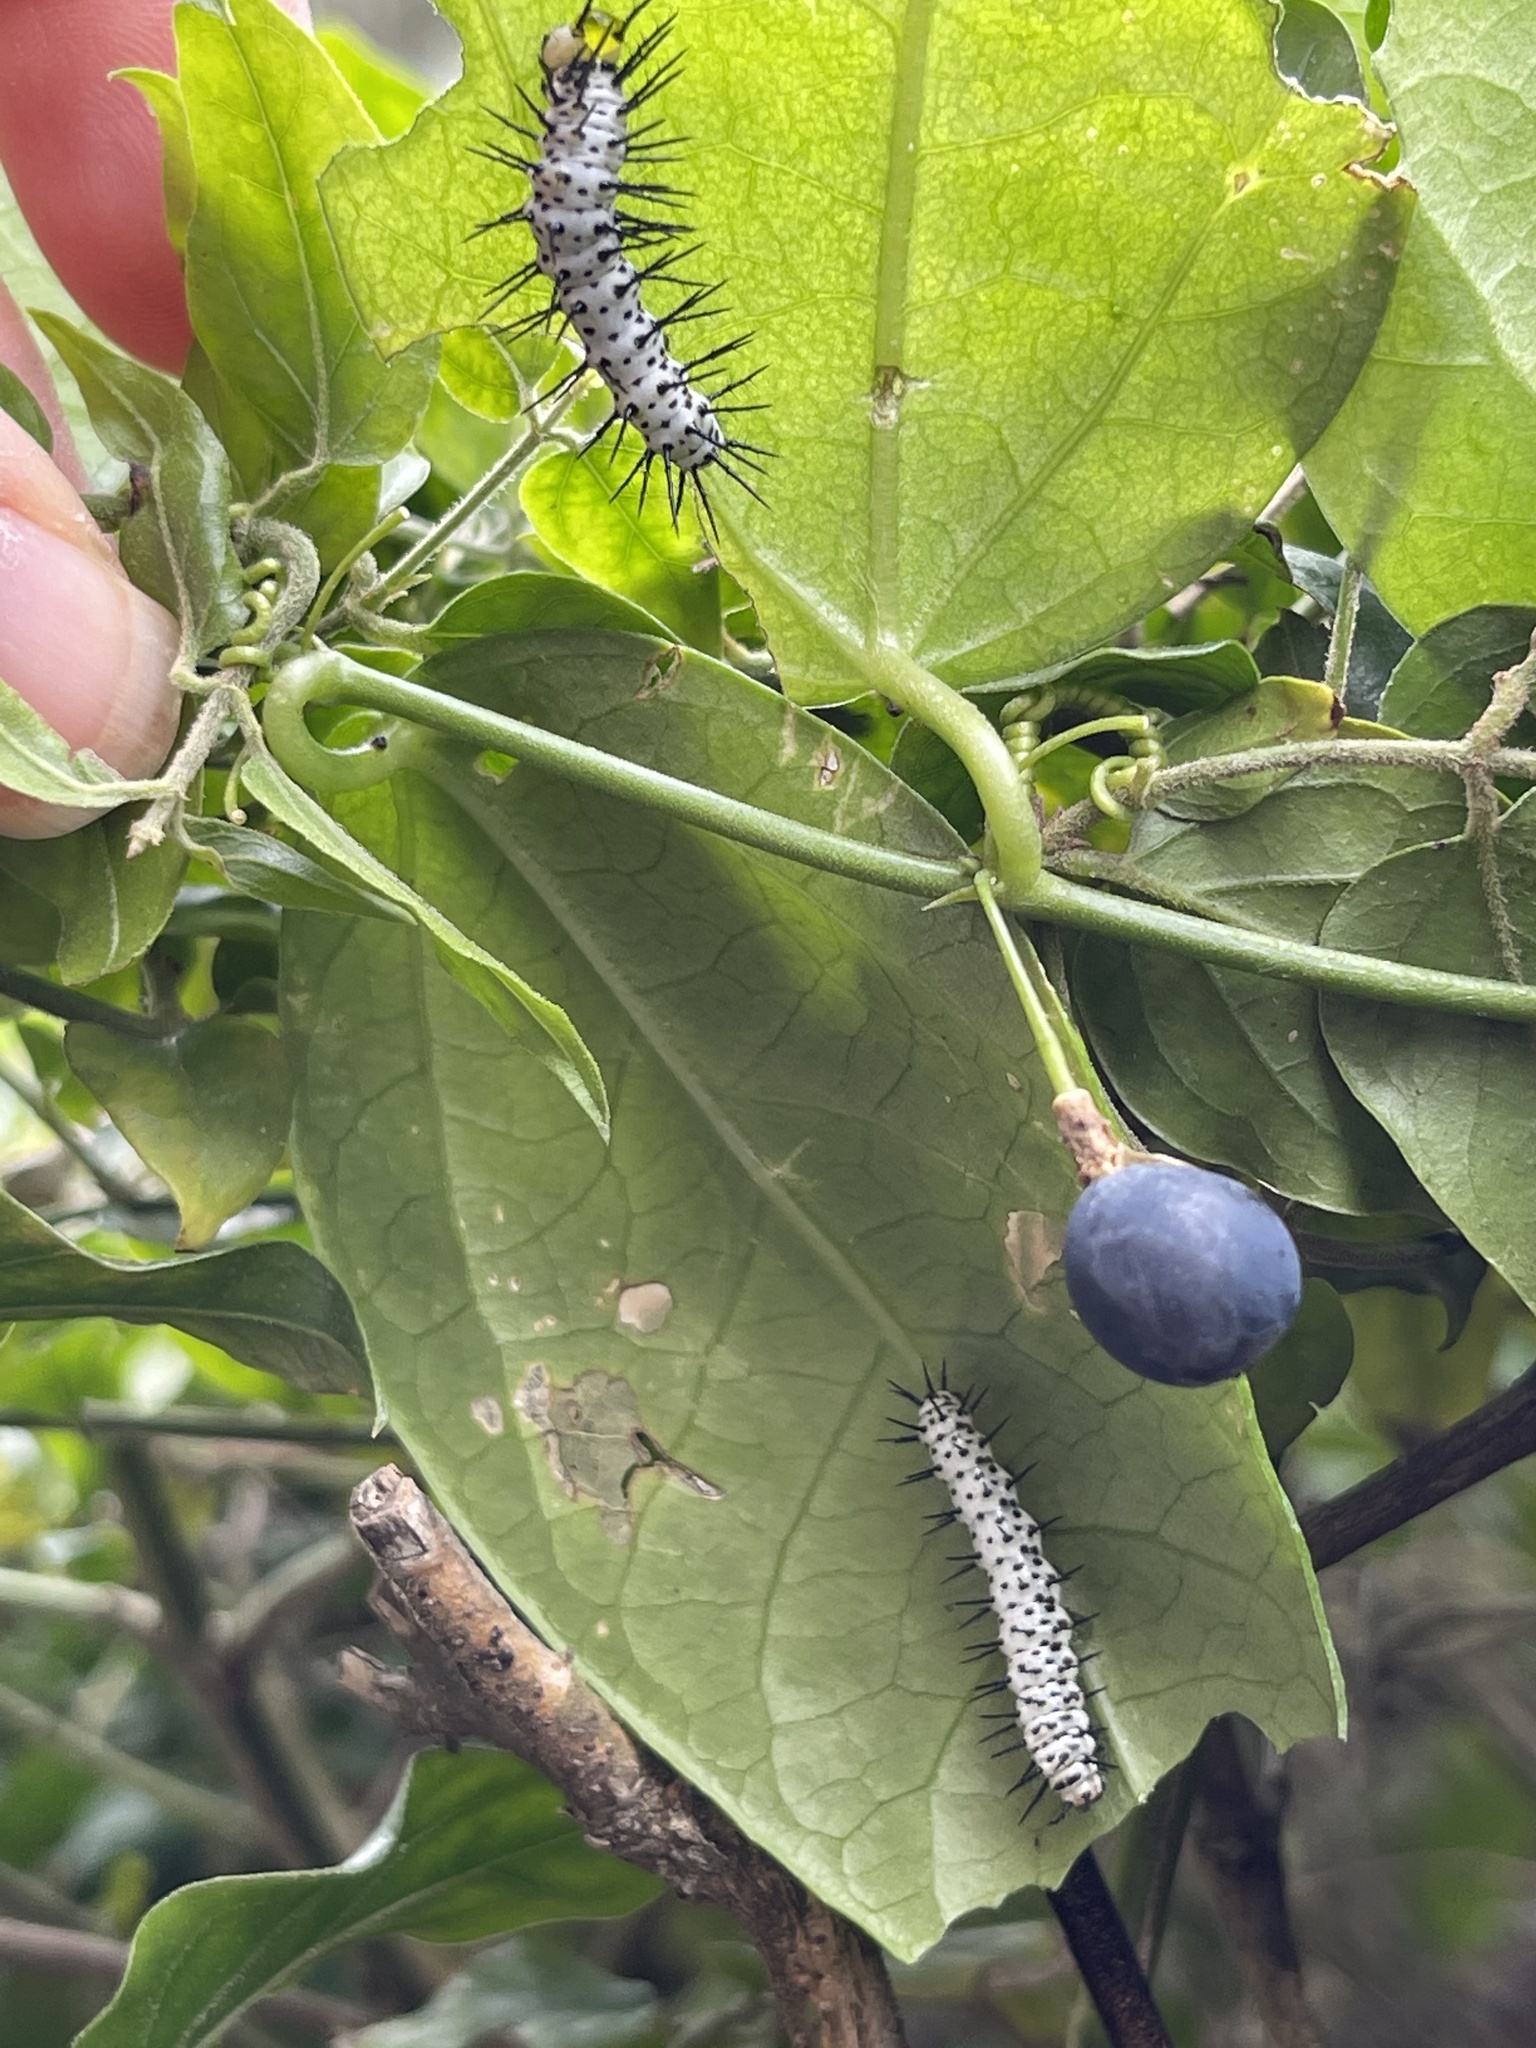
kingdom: Animalia
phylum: Arthropoda
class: Insecta
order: Lepidoptera
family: Nymphalidae
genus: Heliconius
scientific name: Heliconius charithonia
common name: Zebra long wing
